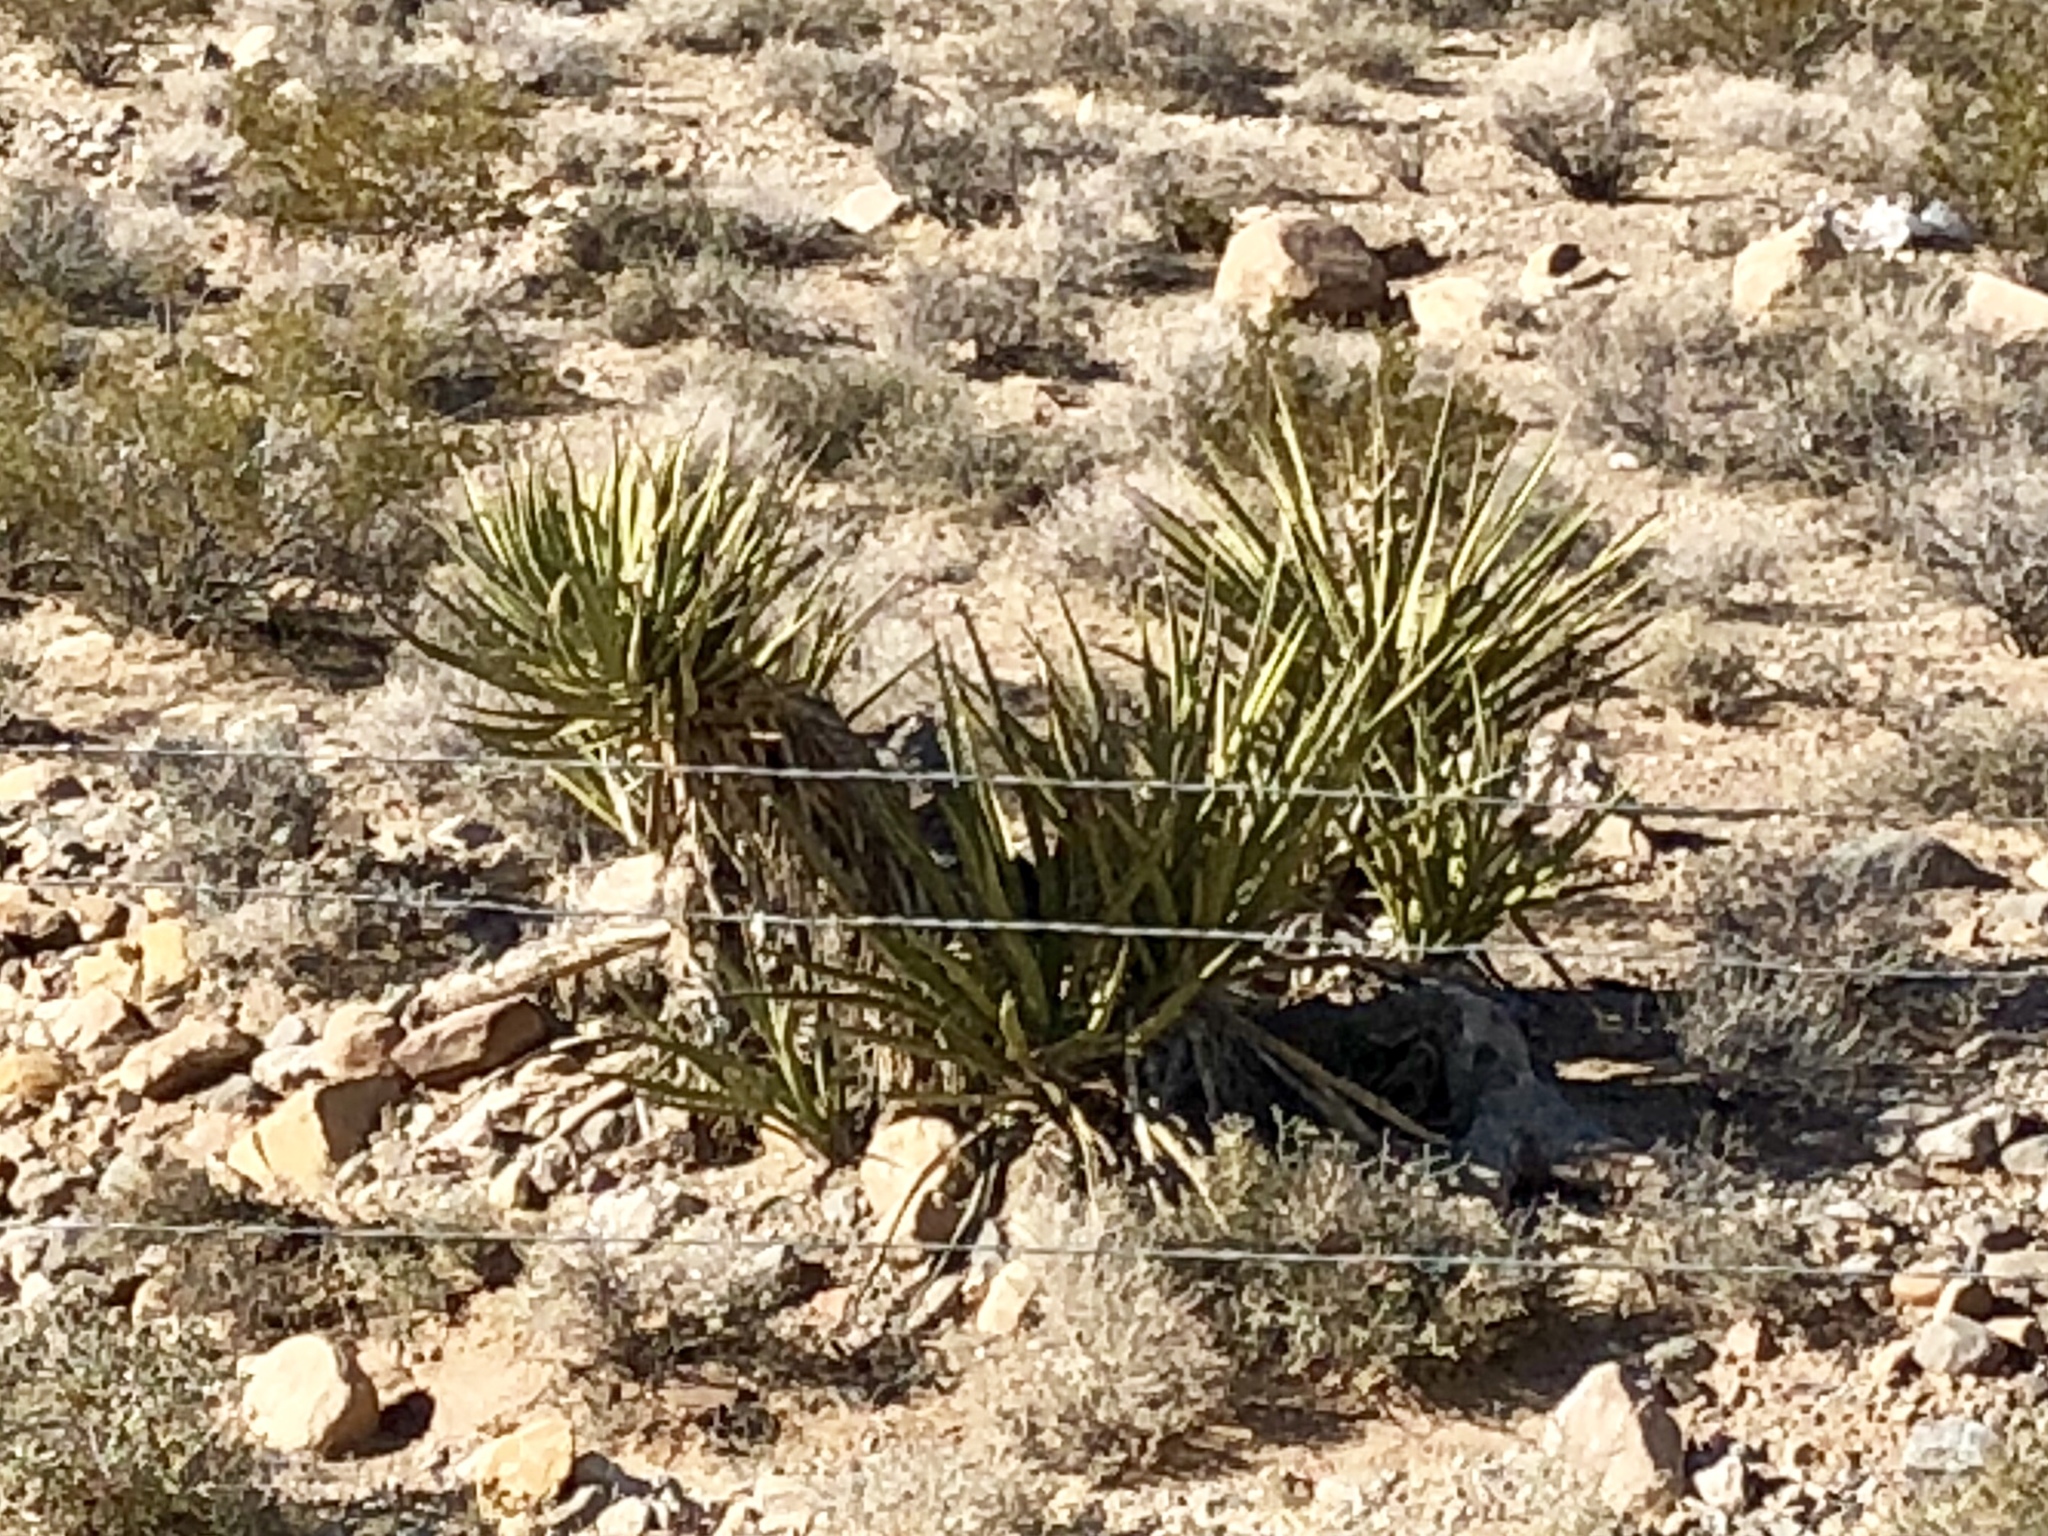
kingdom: Plantae
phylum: Tracheophyta
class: Liliopsida
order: Asparagales
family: Asparagaceae
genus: Yucca
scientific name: Yucca schidigera
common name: Mojave yucca
